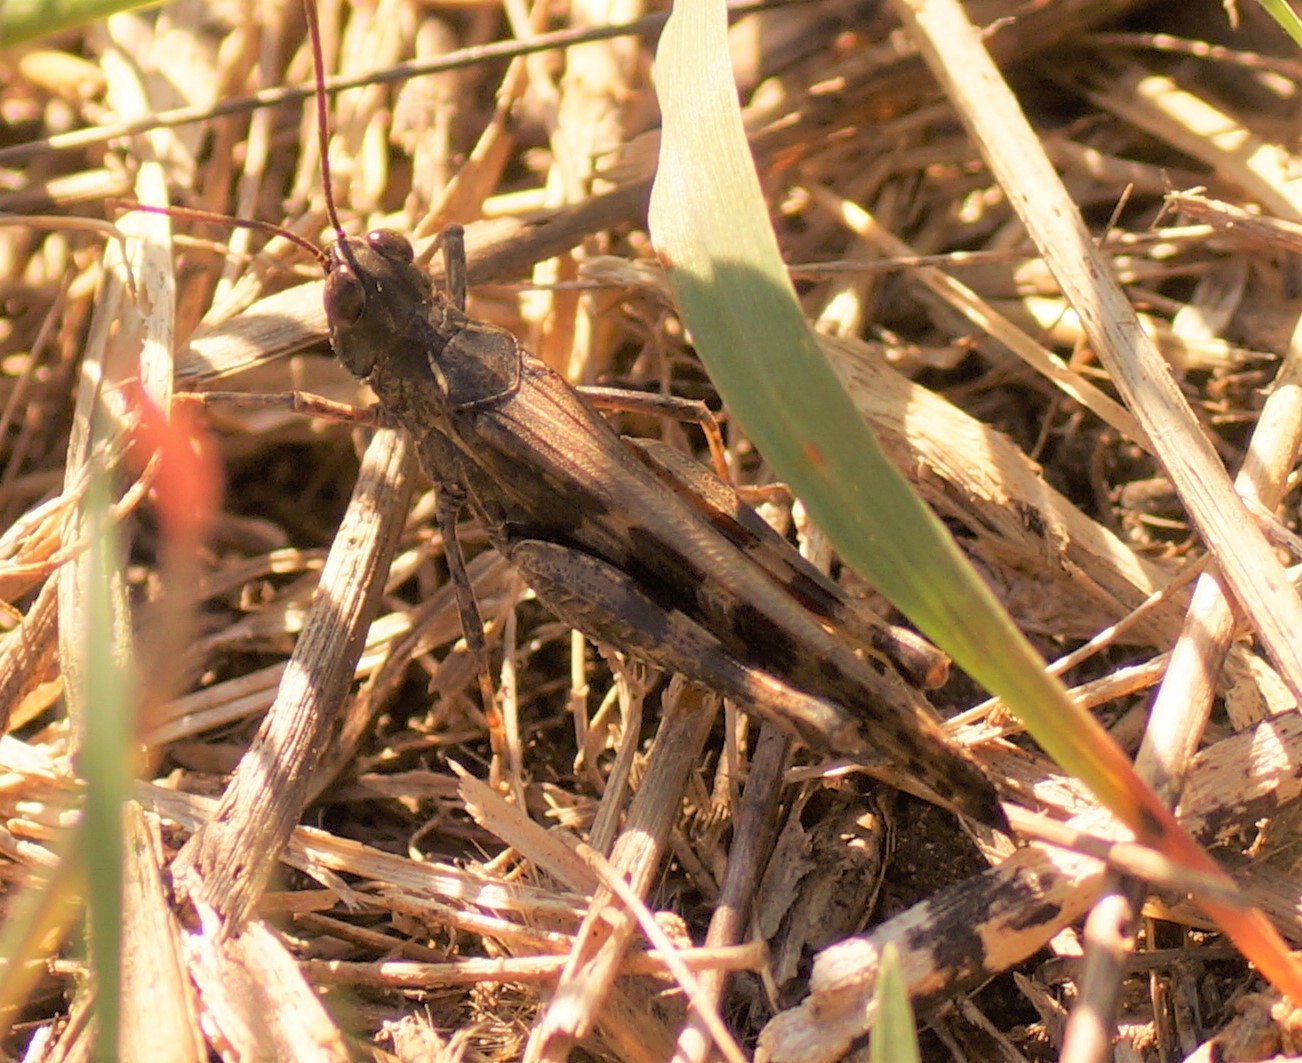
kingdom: Animalia
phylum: Arthropoda
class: Insecta
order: Orthoptera
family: Acrididae
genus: Chortoicetes
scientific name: Chortoicetes terminifera
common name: Australian plague locust
